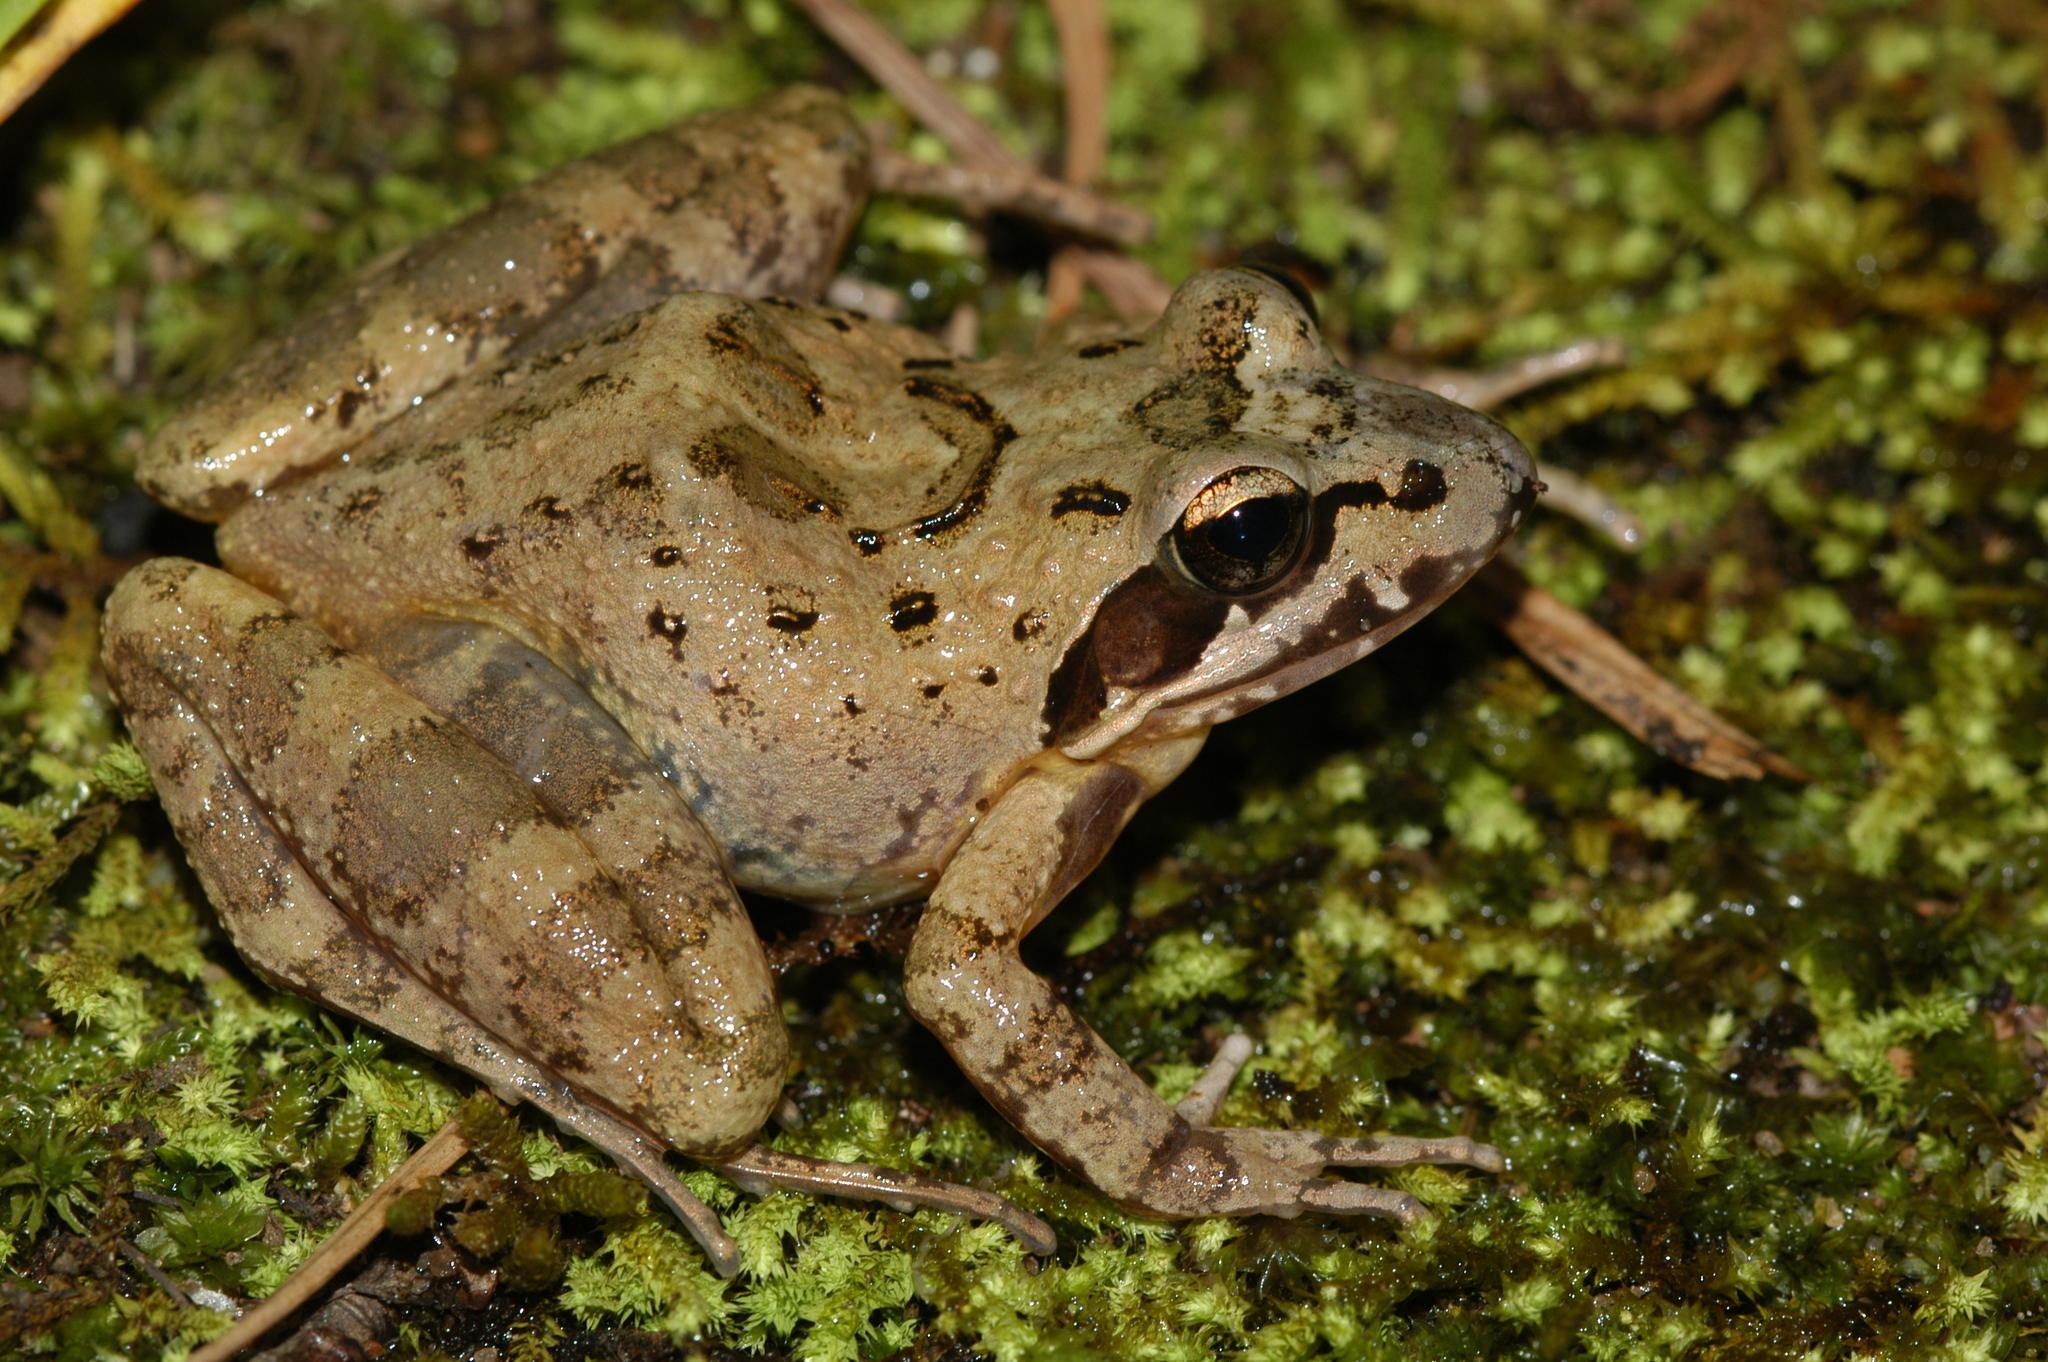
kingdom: Animalia
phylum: Chordata
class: Amphibia
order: Anura
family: Pyxicephalidae
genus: Strongylopus
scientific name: Strongylopus grayii
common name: Gray's stream frog
